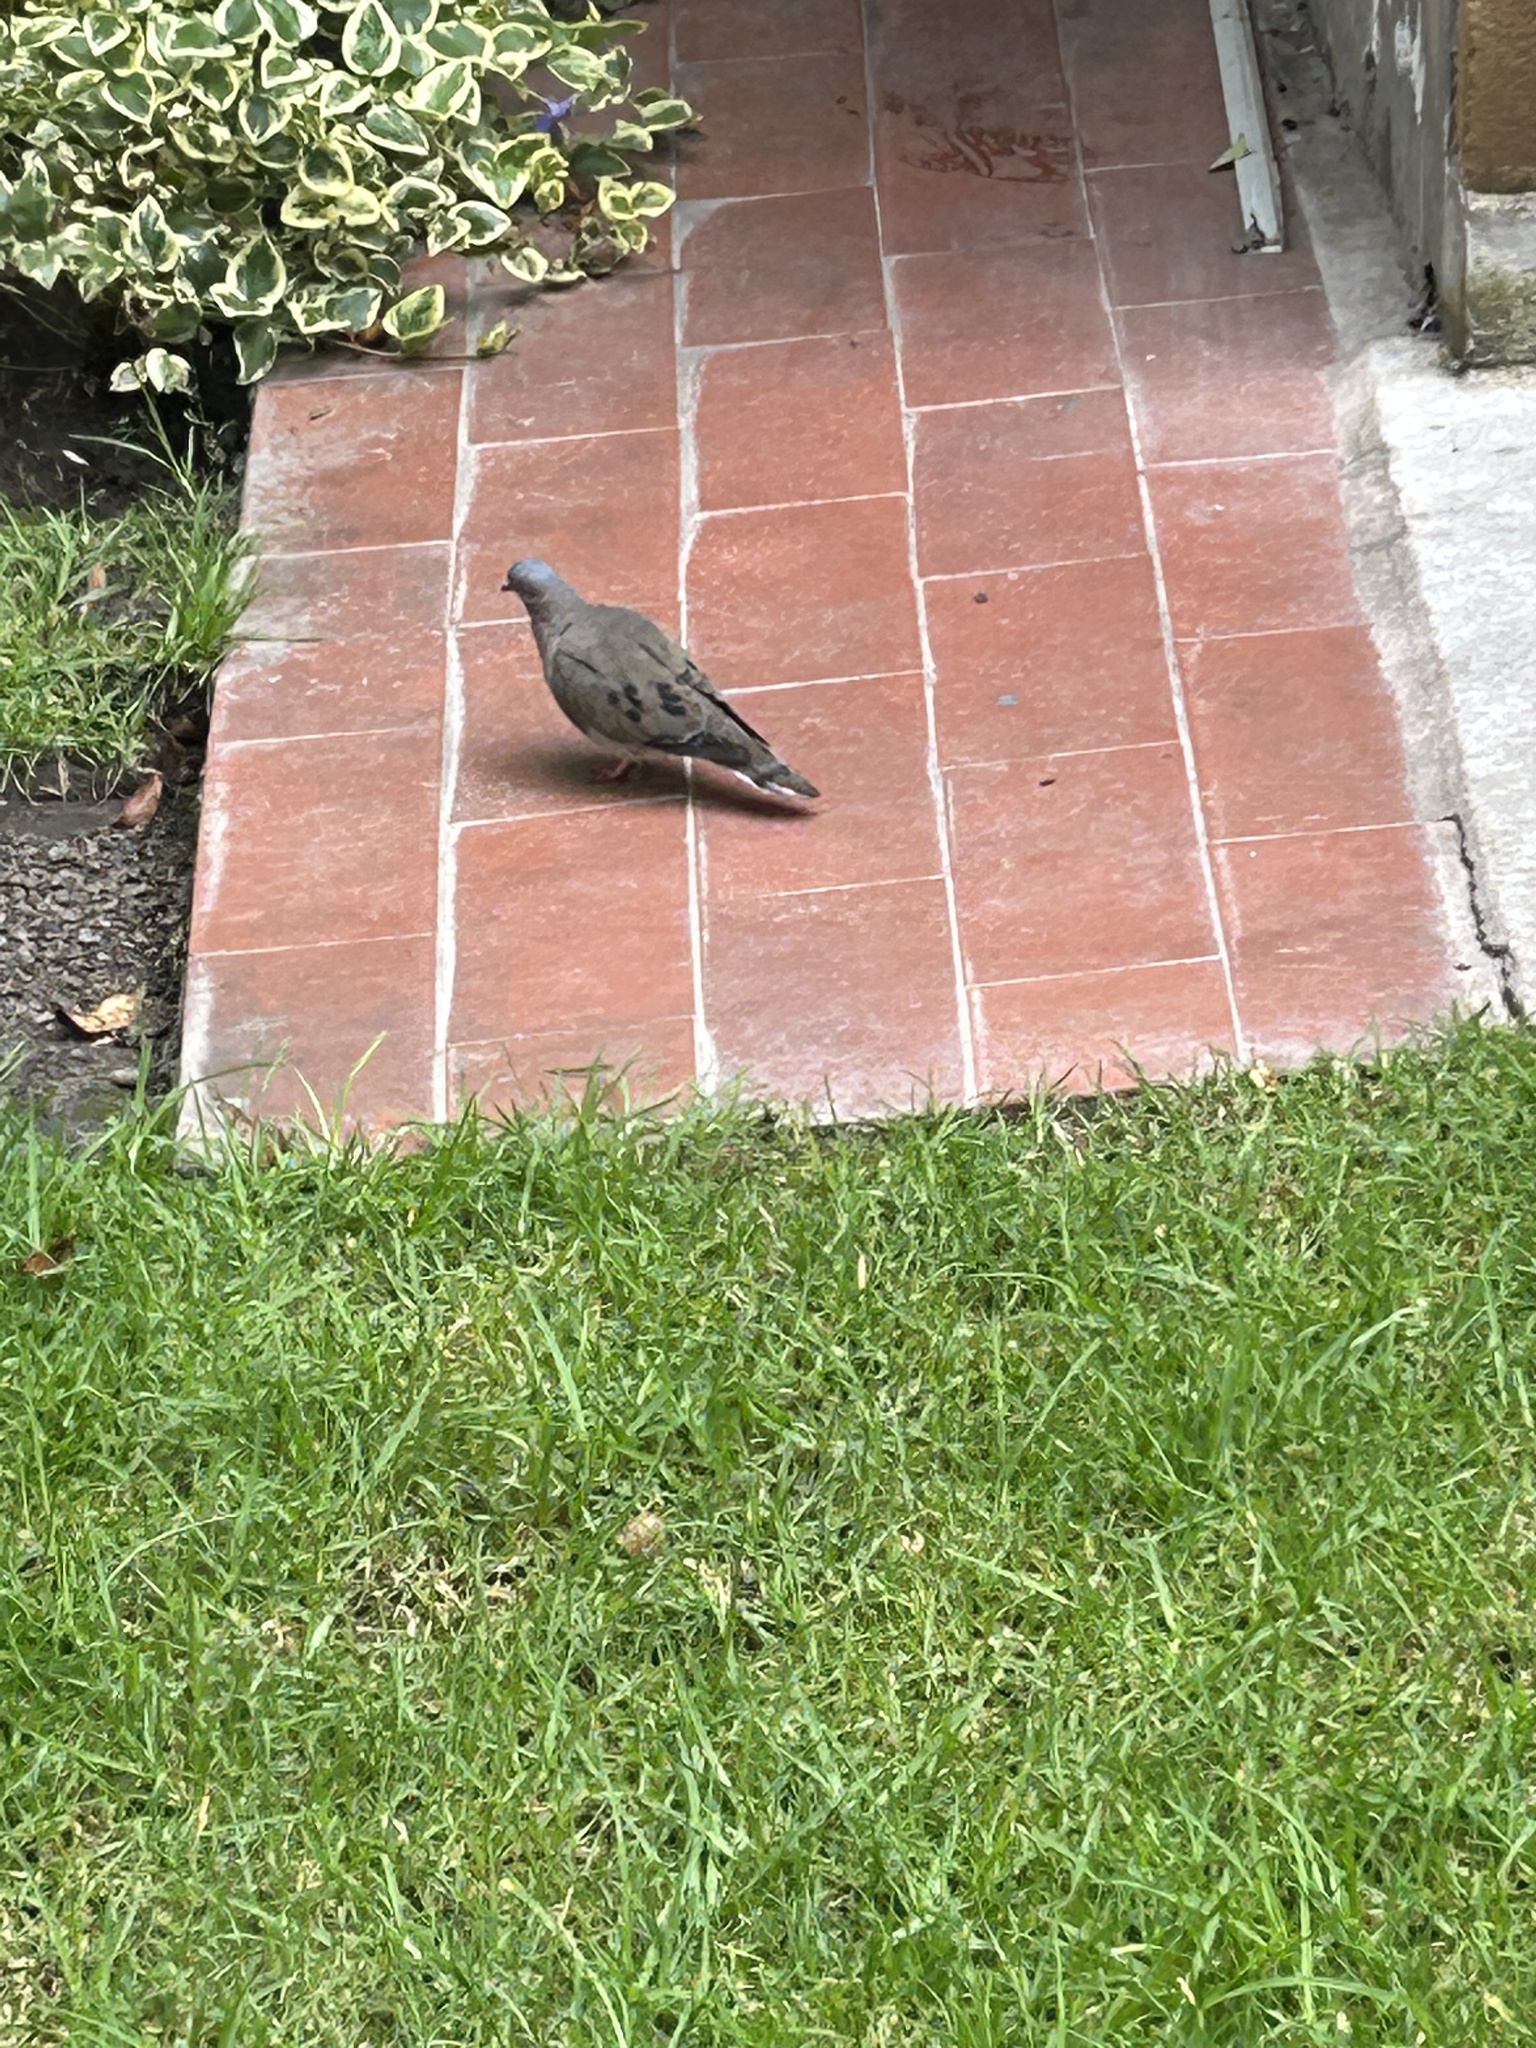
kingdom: Animalia
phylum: Chordata
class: Aves
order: Columbiformes
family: Columbidae
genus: Zenaida
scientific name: Zenaida auriculata
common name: Eared dove
